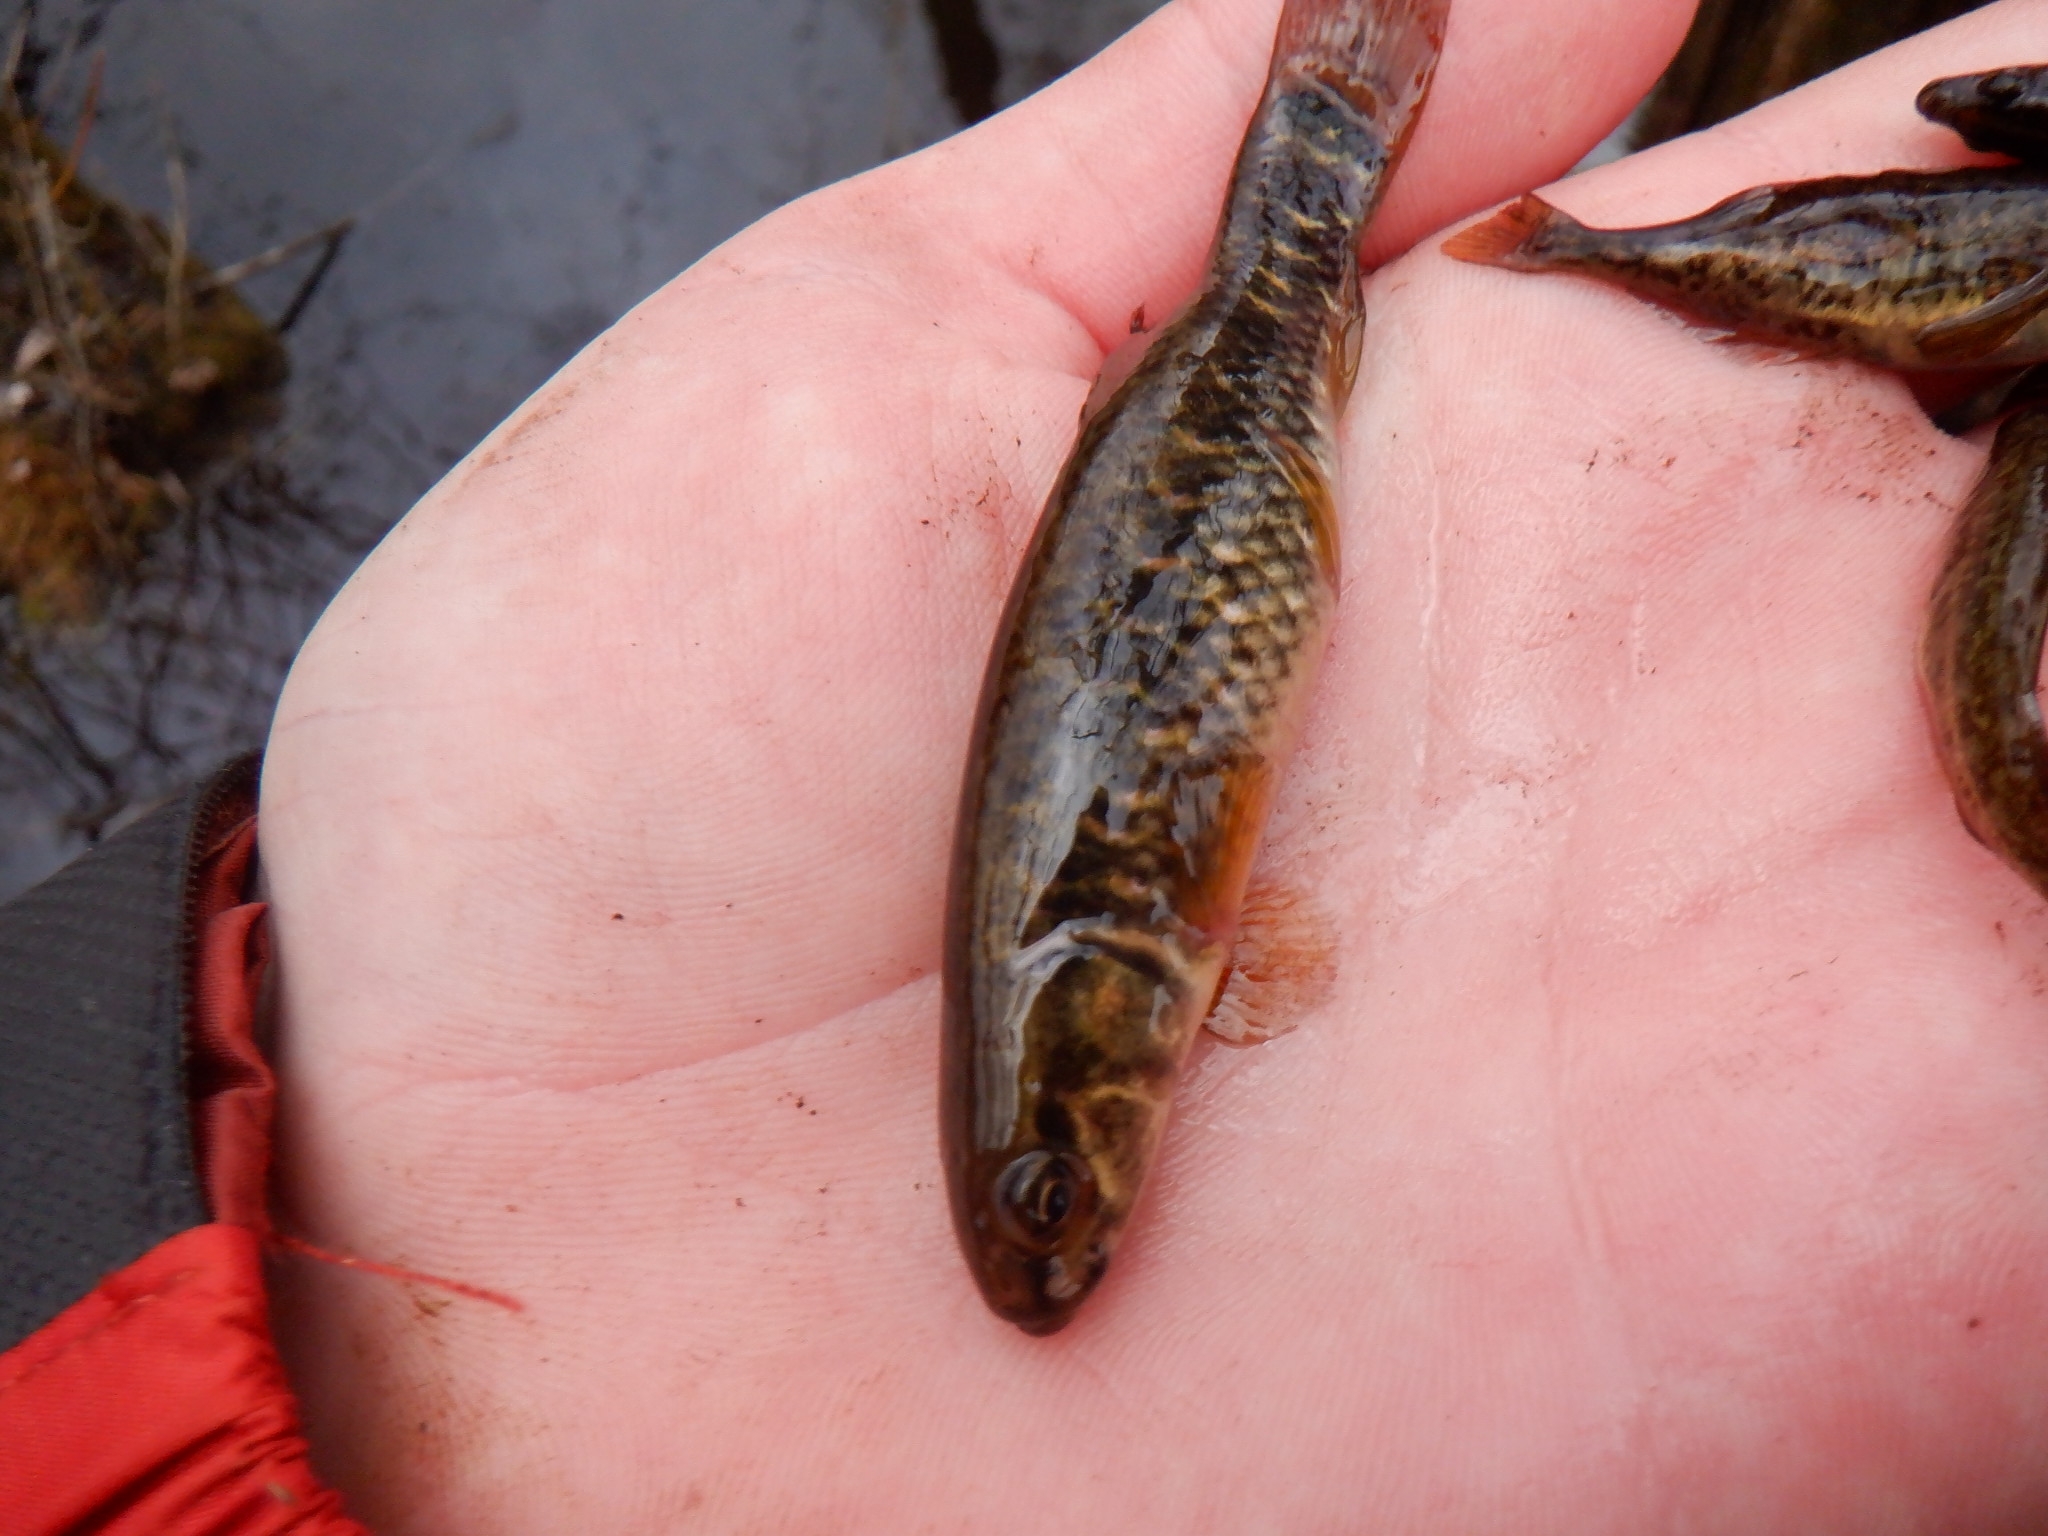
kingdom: Animalia
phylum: Chordata
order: Esociformes
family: Umbridae
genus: Umbra
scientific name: Umbra limi
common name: Central mudminnow
